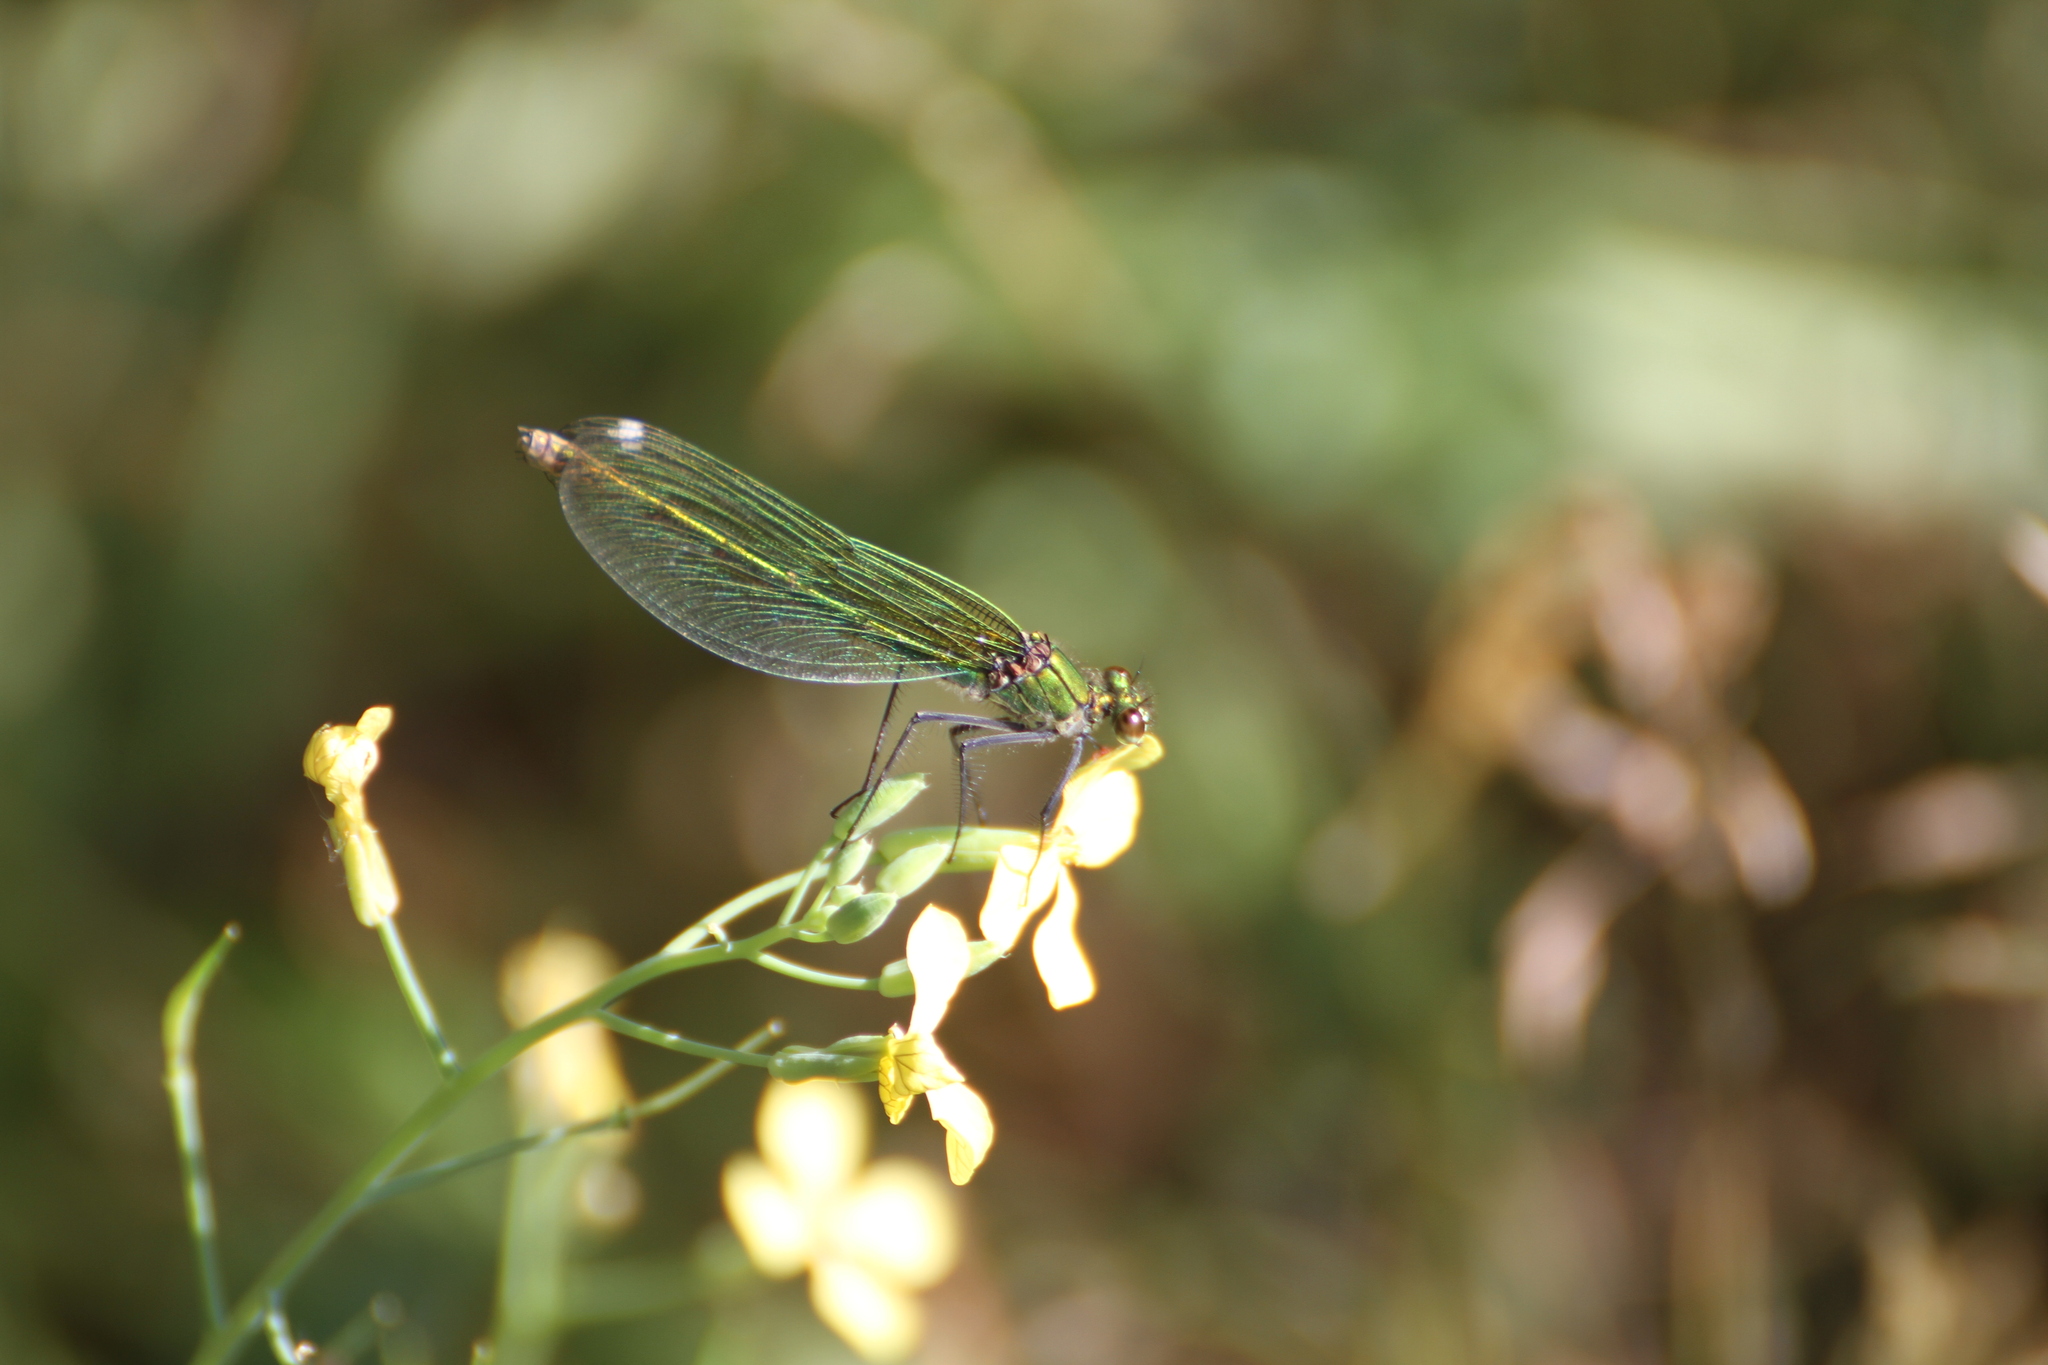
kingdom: Animalia
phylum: Arthropoda
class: Insecta
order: Odonata
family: Calopterygidae
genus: Calopteryx
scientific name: Calopteryx splendens
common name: Banded demoiselle
